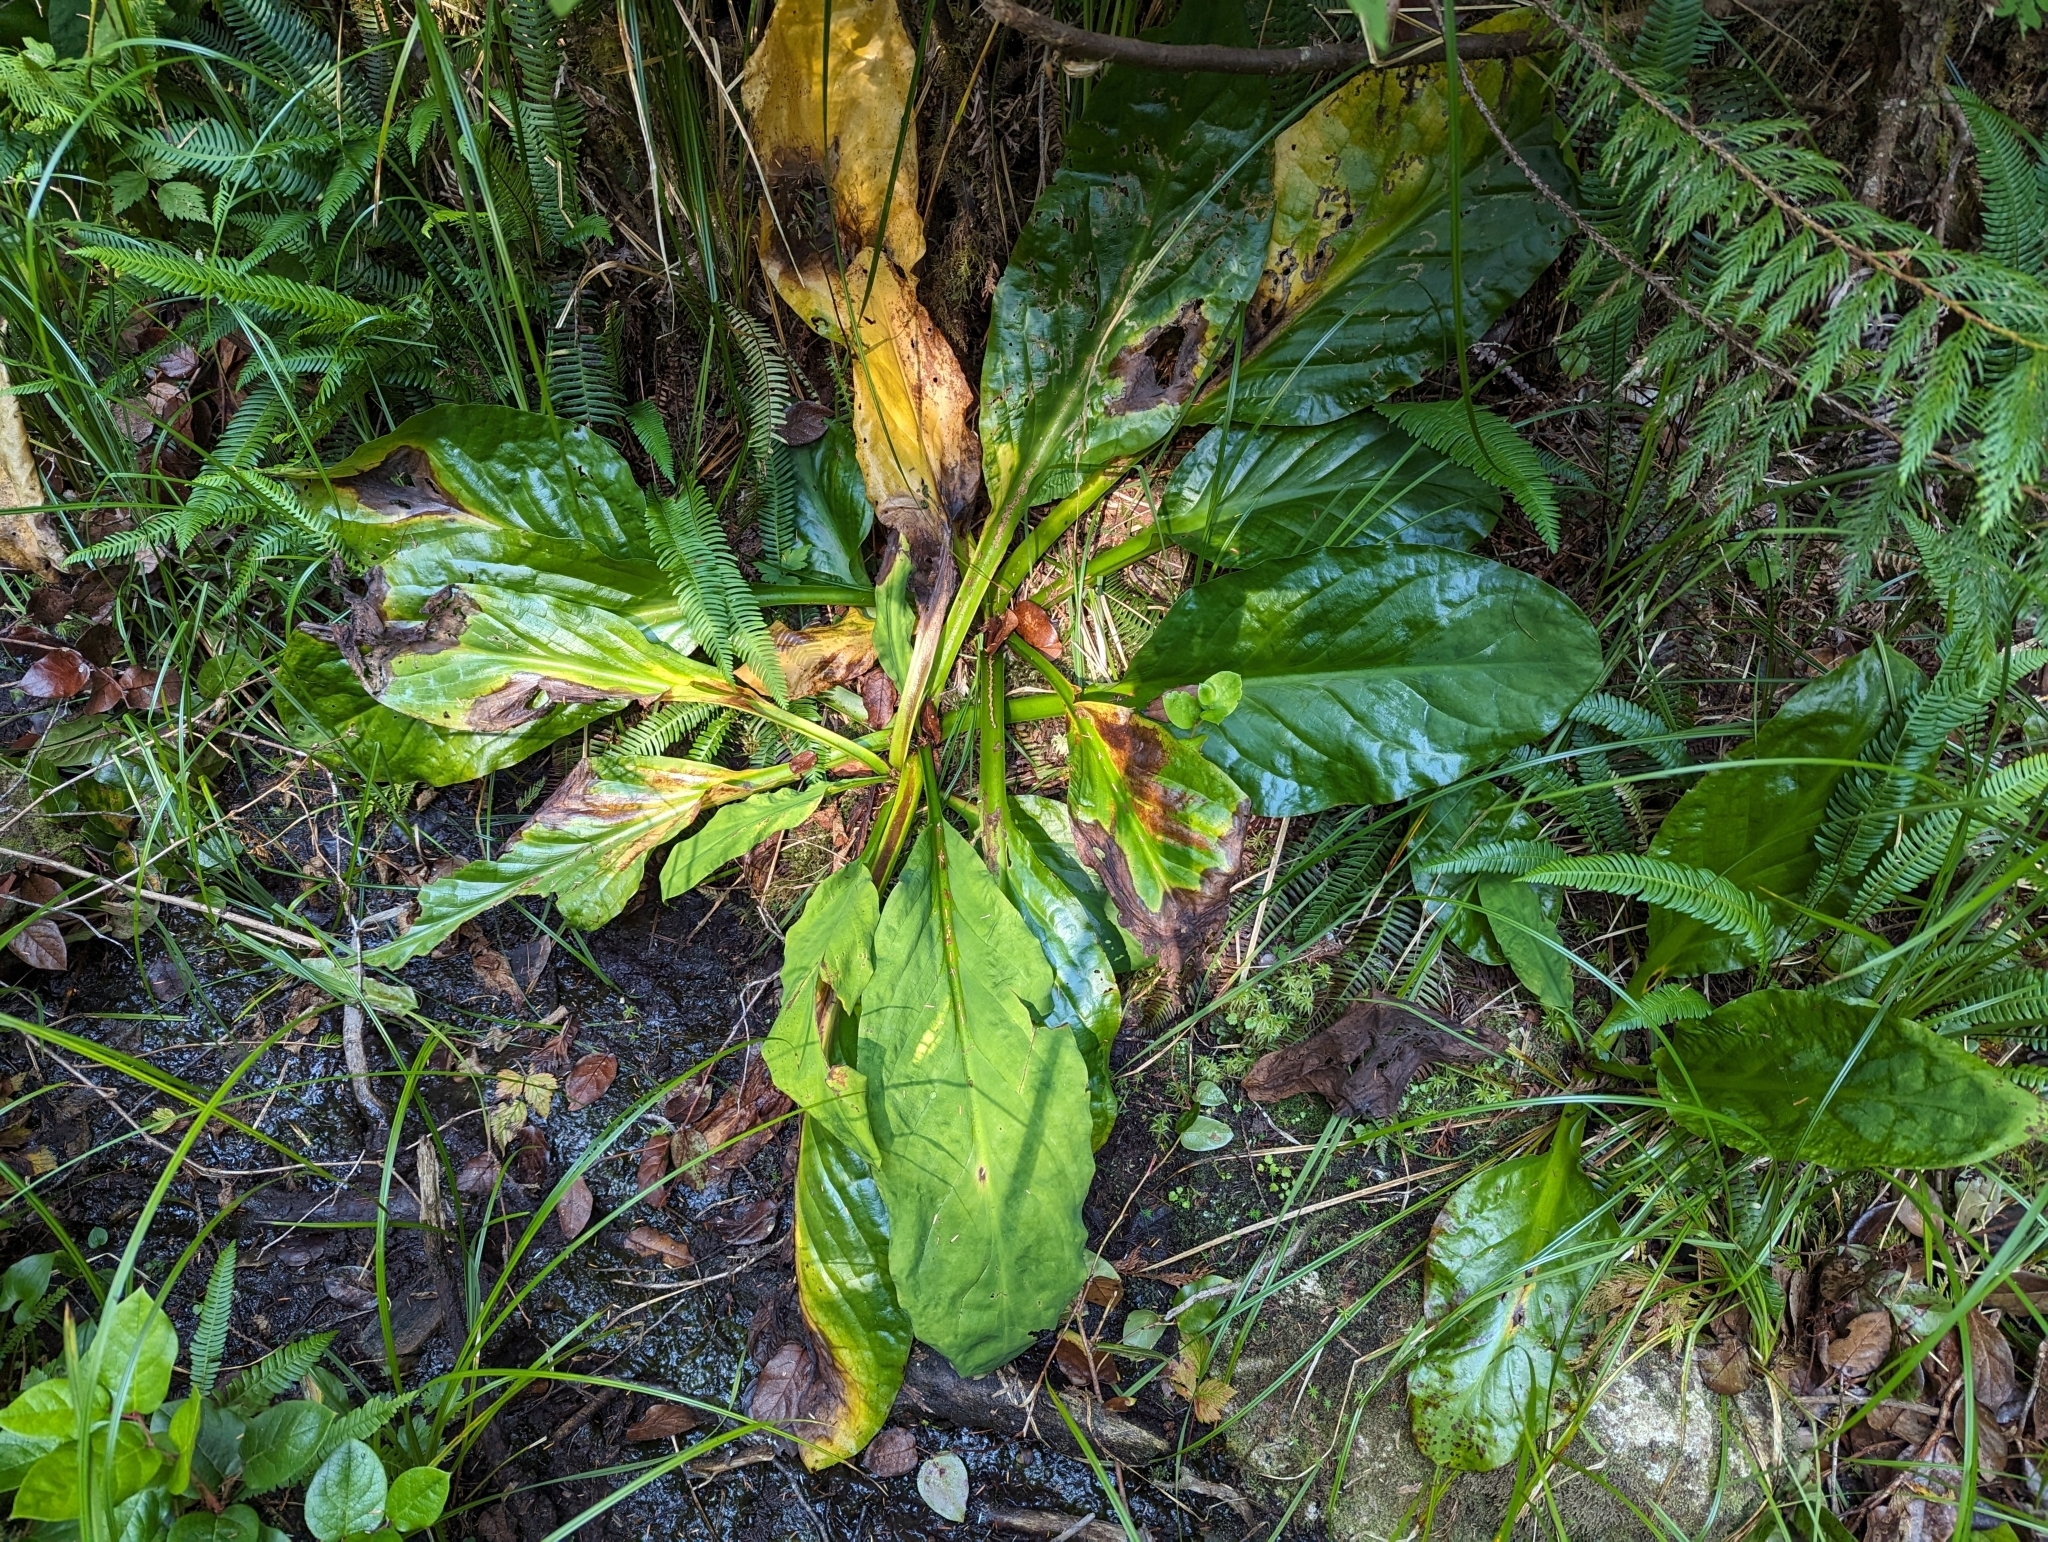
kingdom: Plantae
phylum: Tracheophyta
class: Liliopsida
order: Alismatales
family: Araceae
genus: Lysichiton
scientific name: Lysichiton americanus
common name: American skunk cabbage
